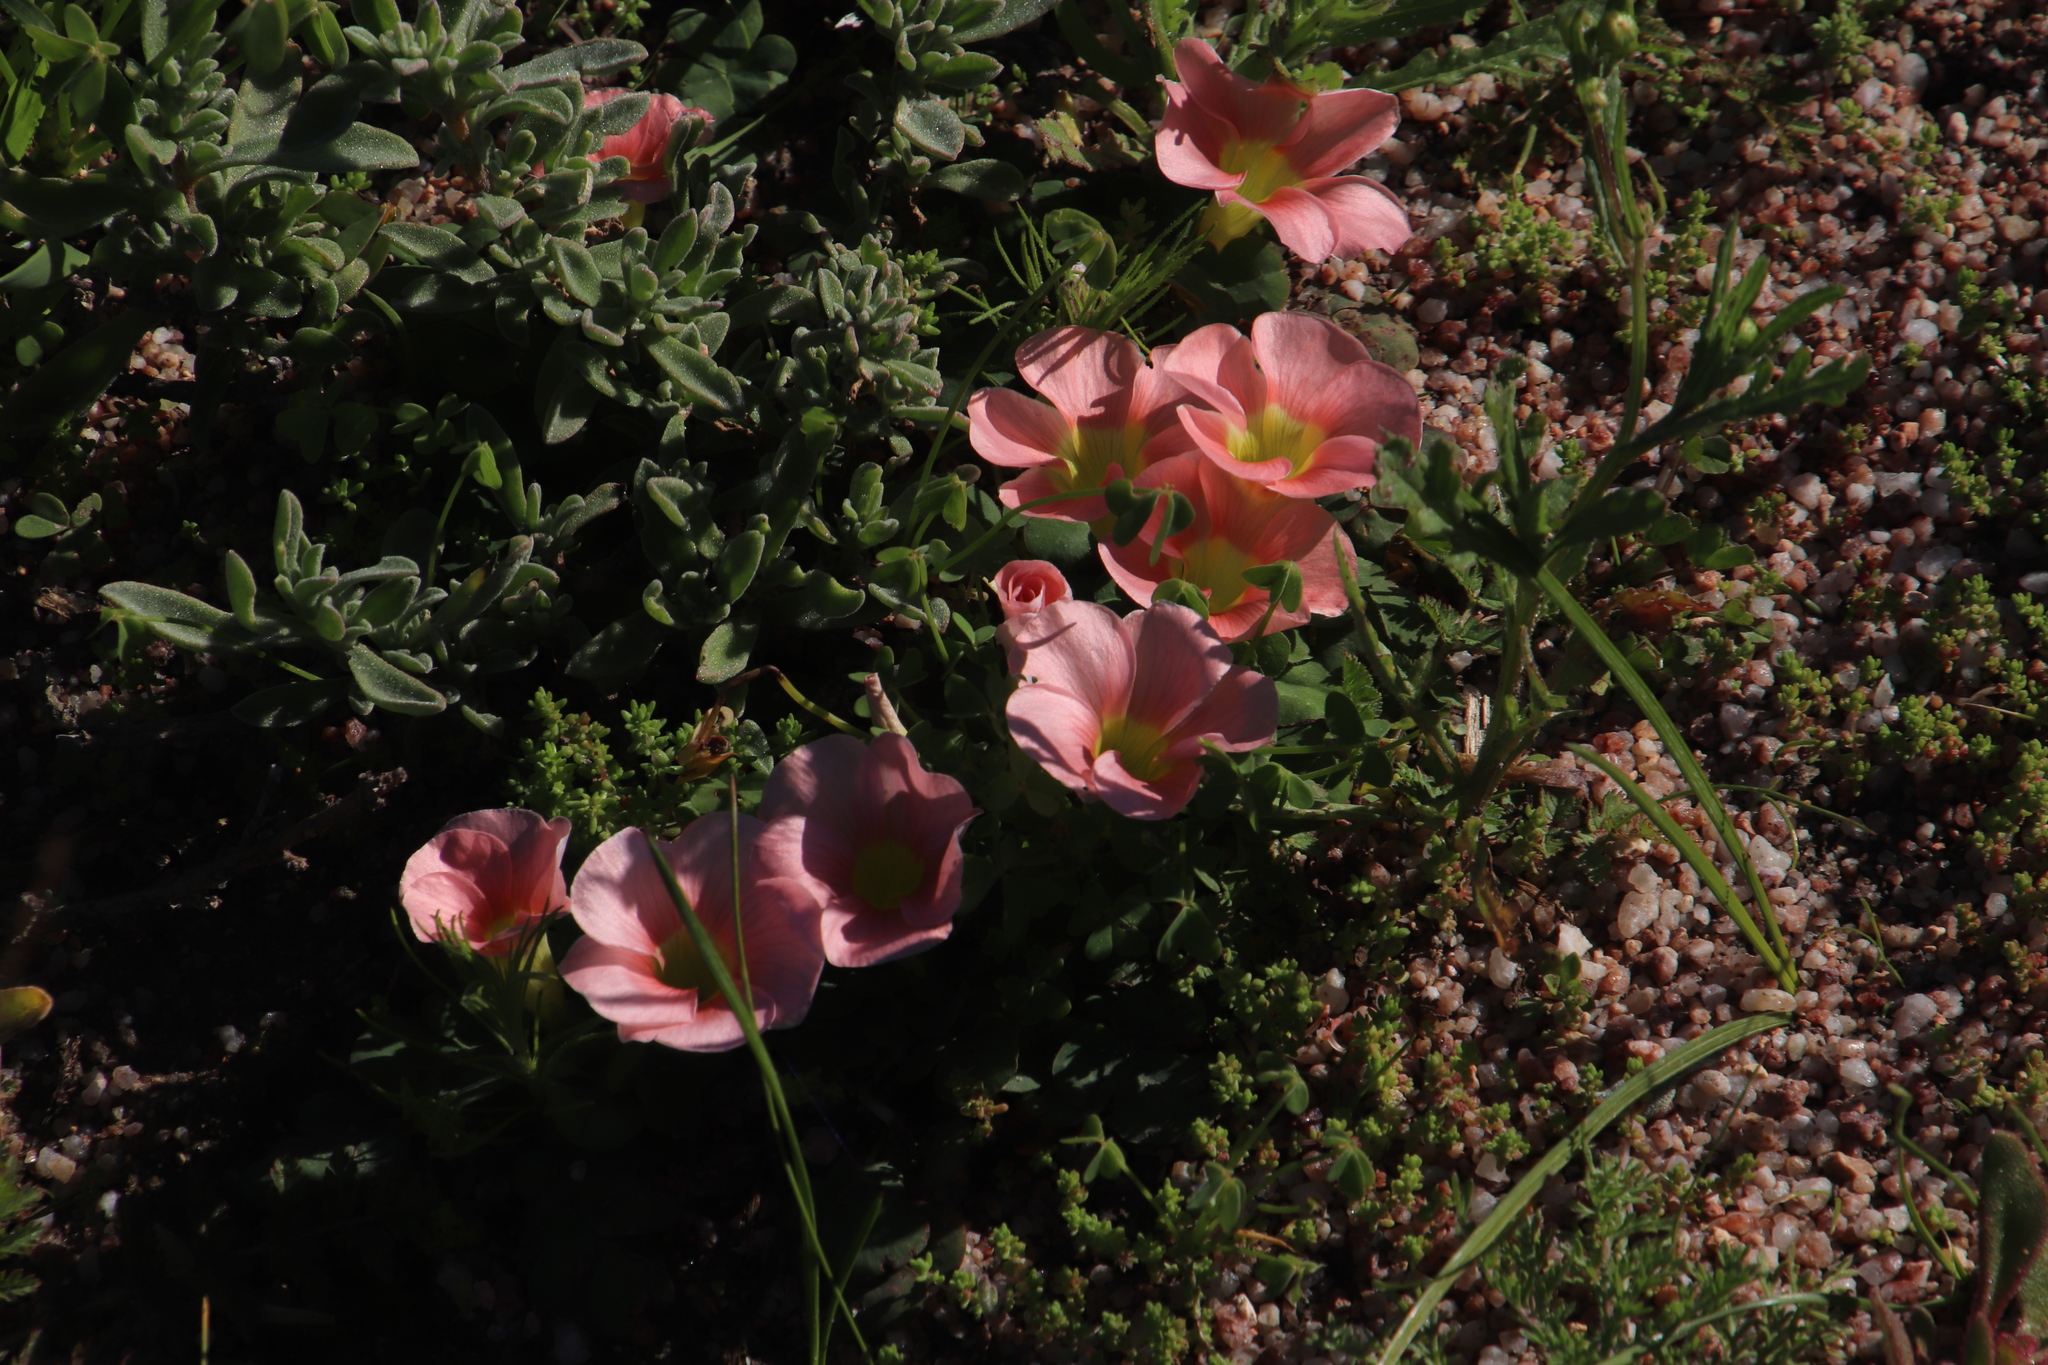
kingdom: Plantae
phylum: Tracheophyta
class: Magnoliopsida
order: Oxalidales
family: Oxalidaceae
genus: Oxalis
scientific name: Oxalis purpurea
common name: Purple woodsorrel
